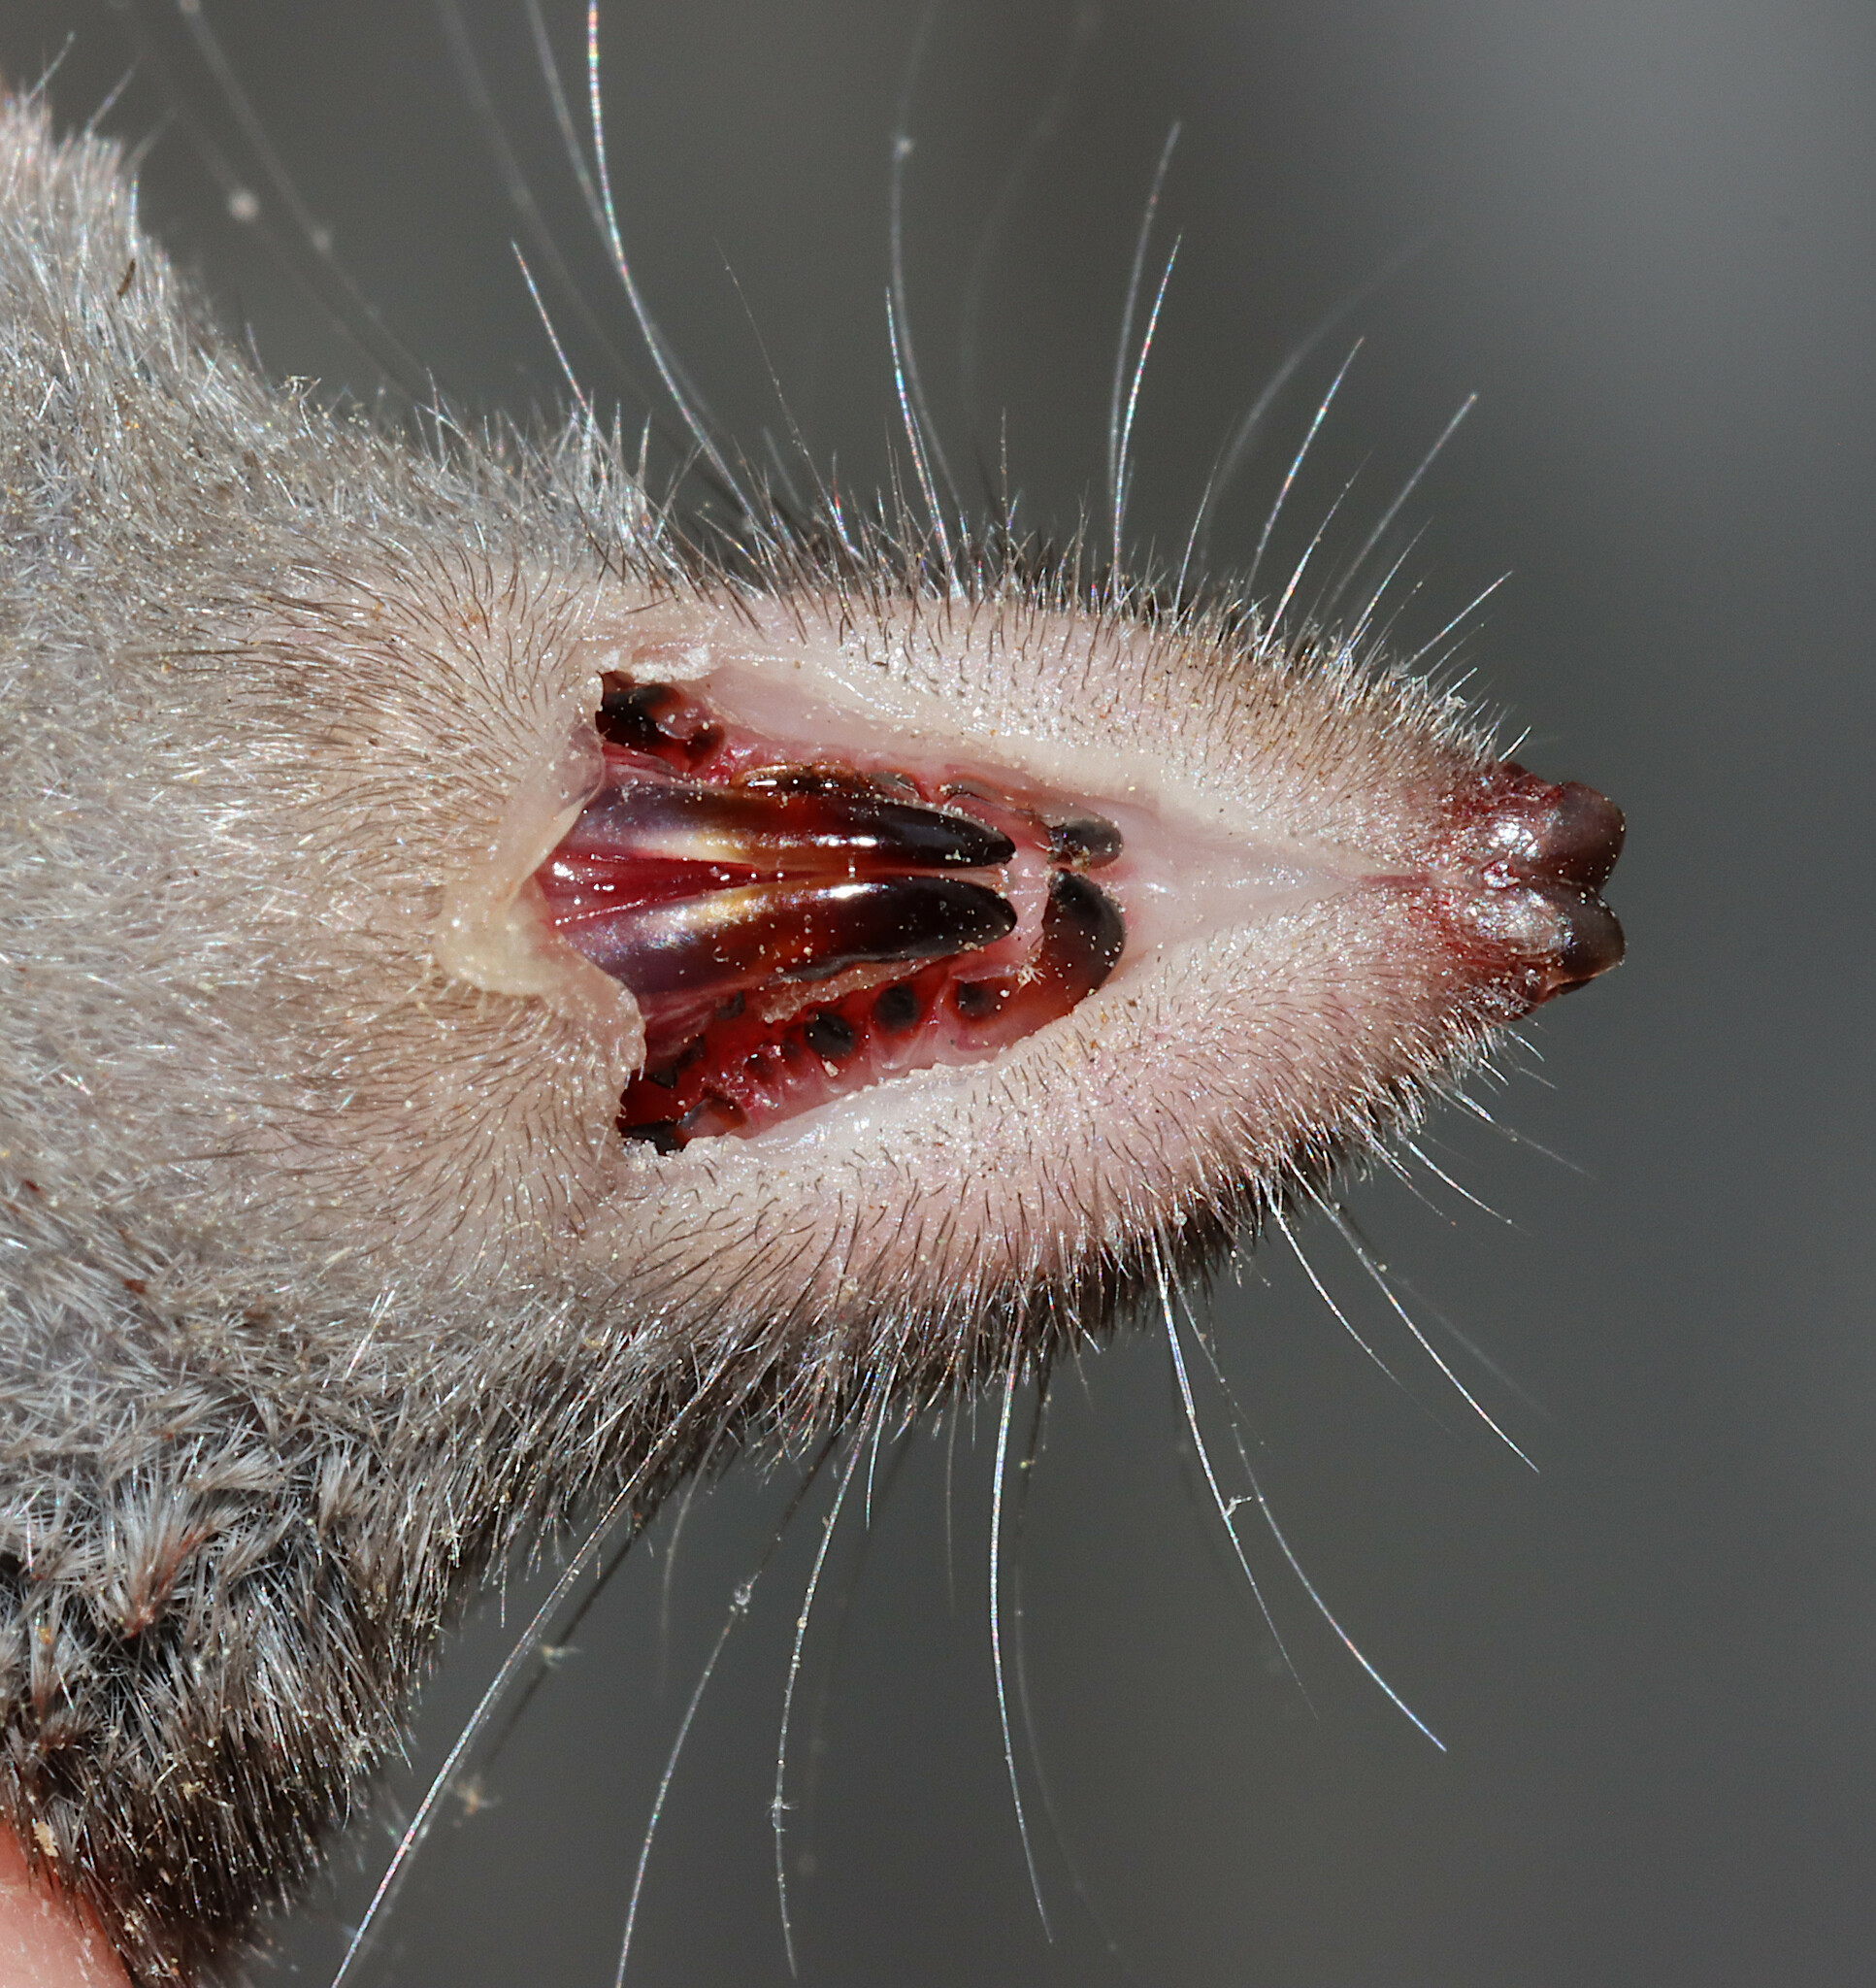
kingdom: Animalia
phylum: Chordata
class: Mammalia
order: Soricomorpha
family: Soricidae
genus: Blarina
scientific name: Blarina carolinensis
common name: Southern short-tailed shrew
